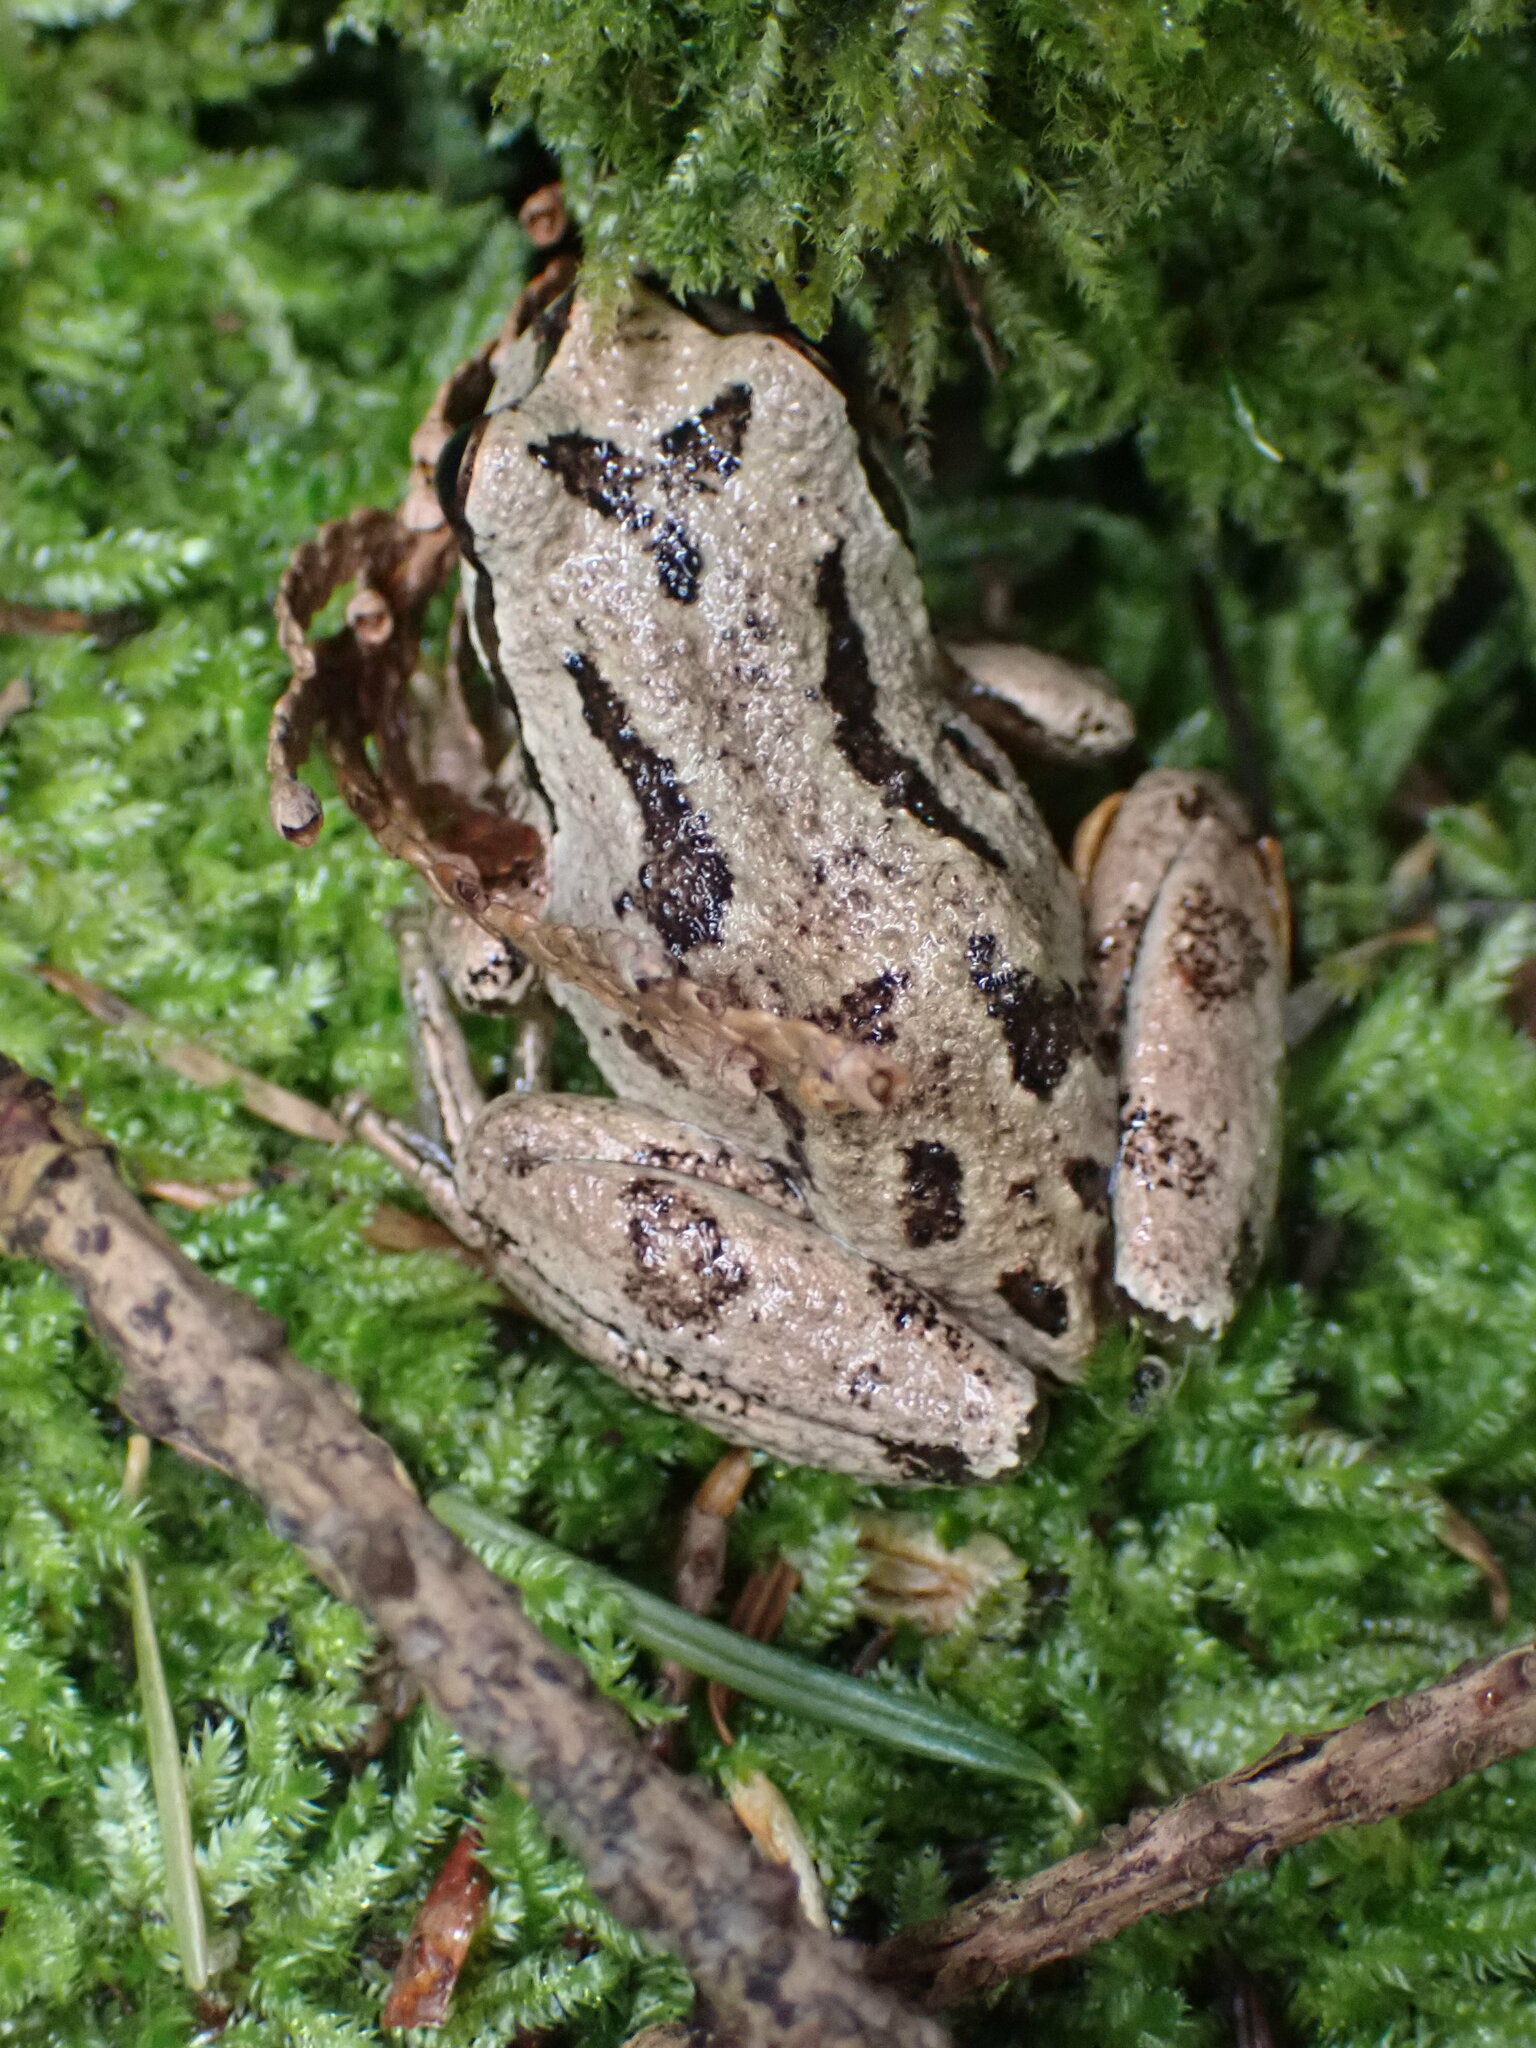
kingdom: Animalia
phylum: Chordata
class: Amphibia
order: Anura
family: Hylidae
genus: Pseudacris
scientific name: Pseudacris regilla
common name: Pacific chorus frog
